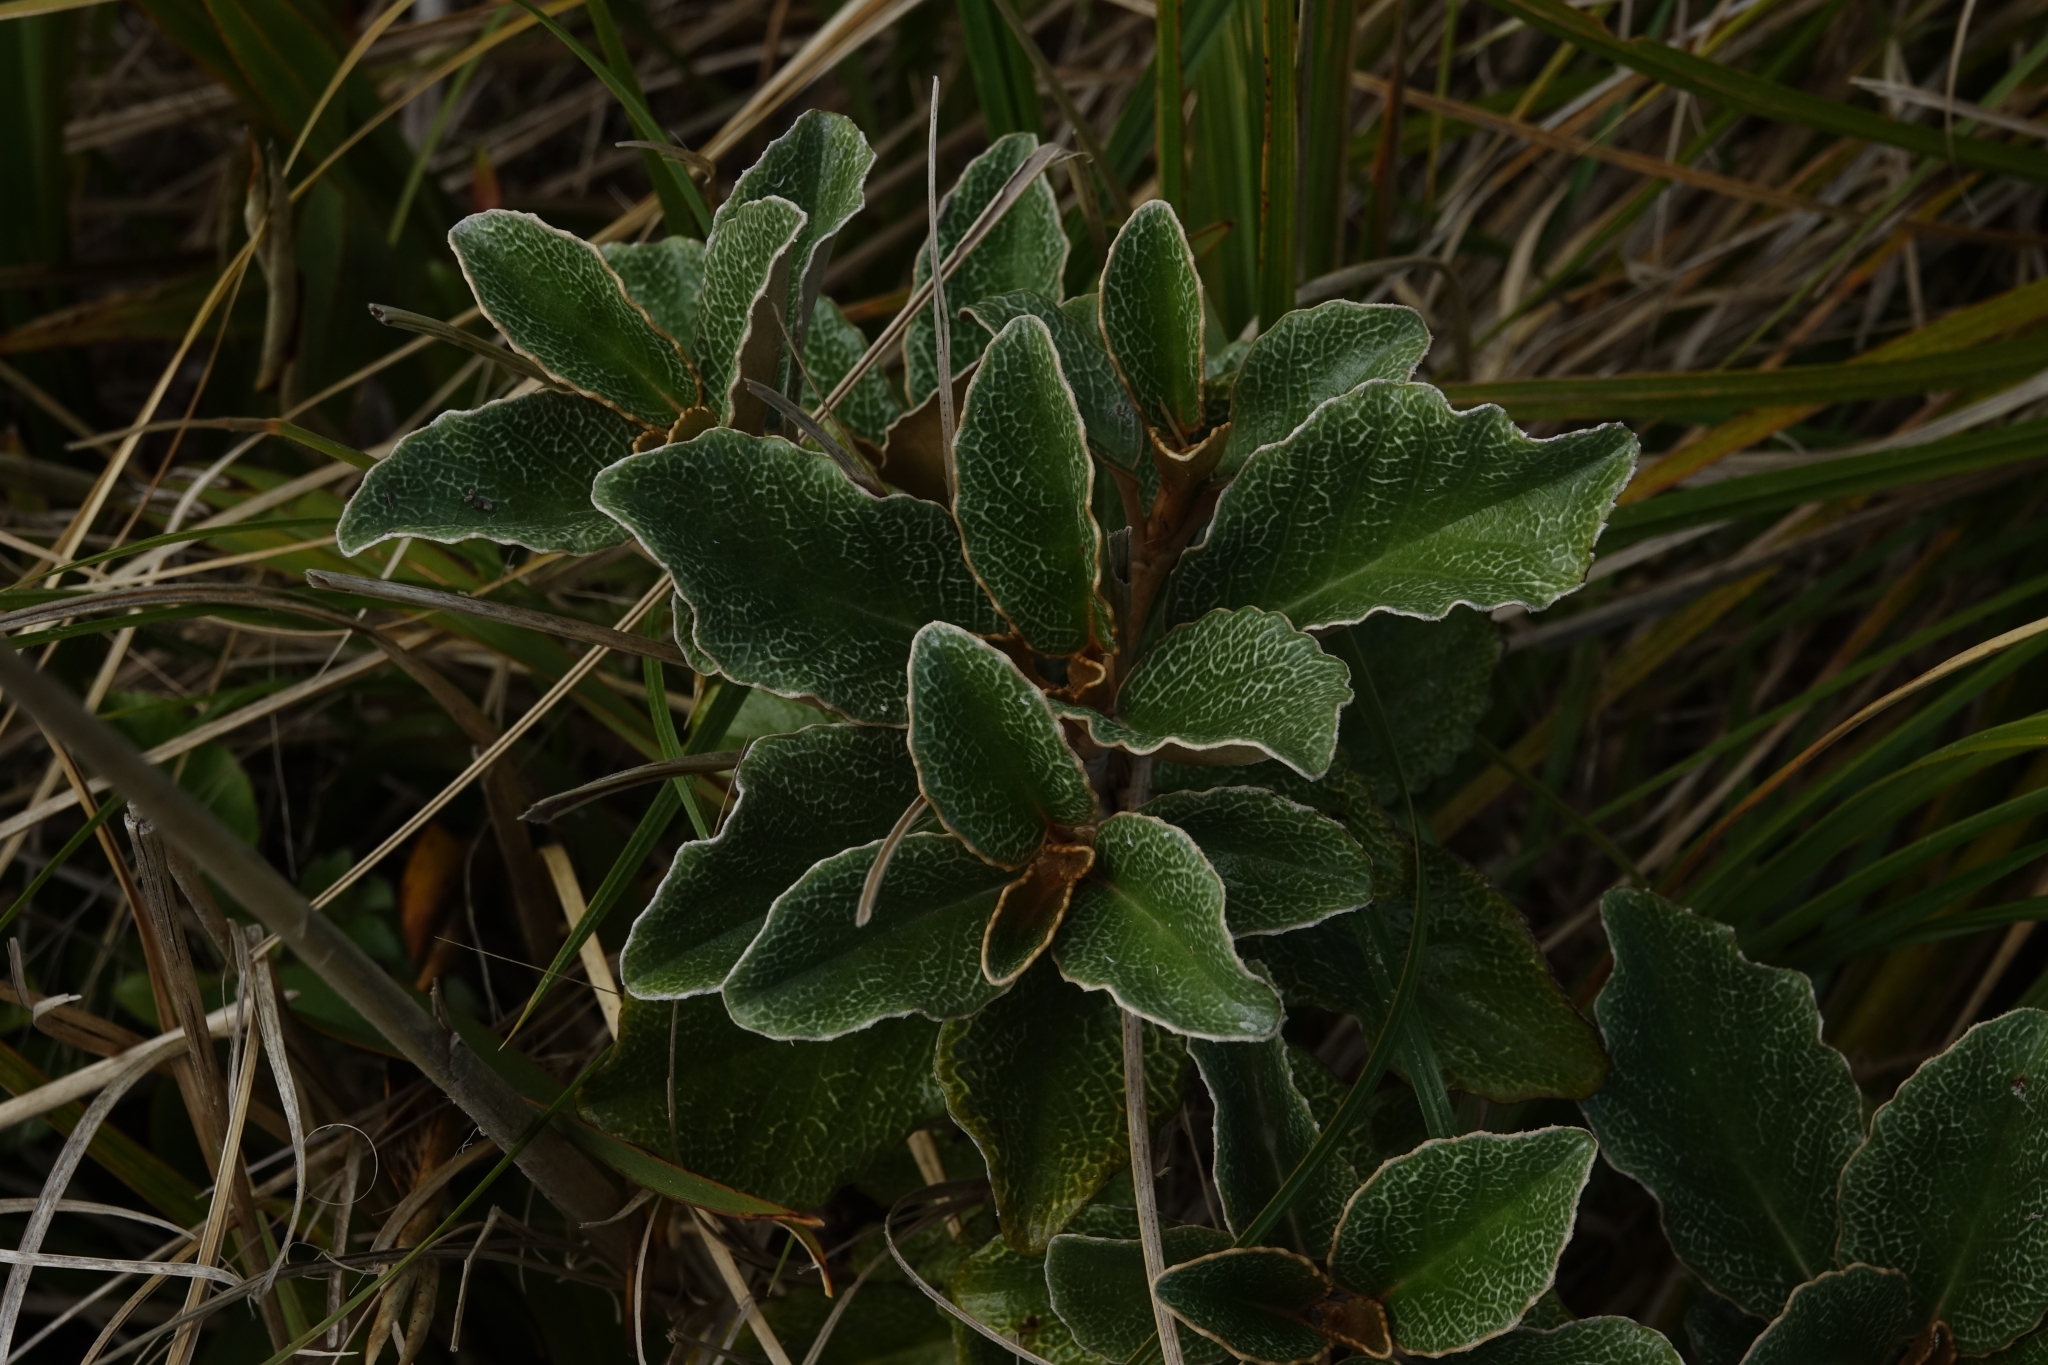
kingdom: Plantae
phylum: Tracheophyta
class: Magnoliopsida
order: Asterales
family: Asteraceae
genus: Brachyglottis
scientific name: Brachyglottis elaeagnifolia
